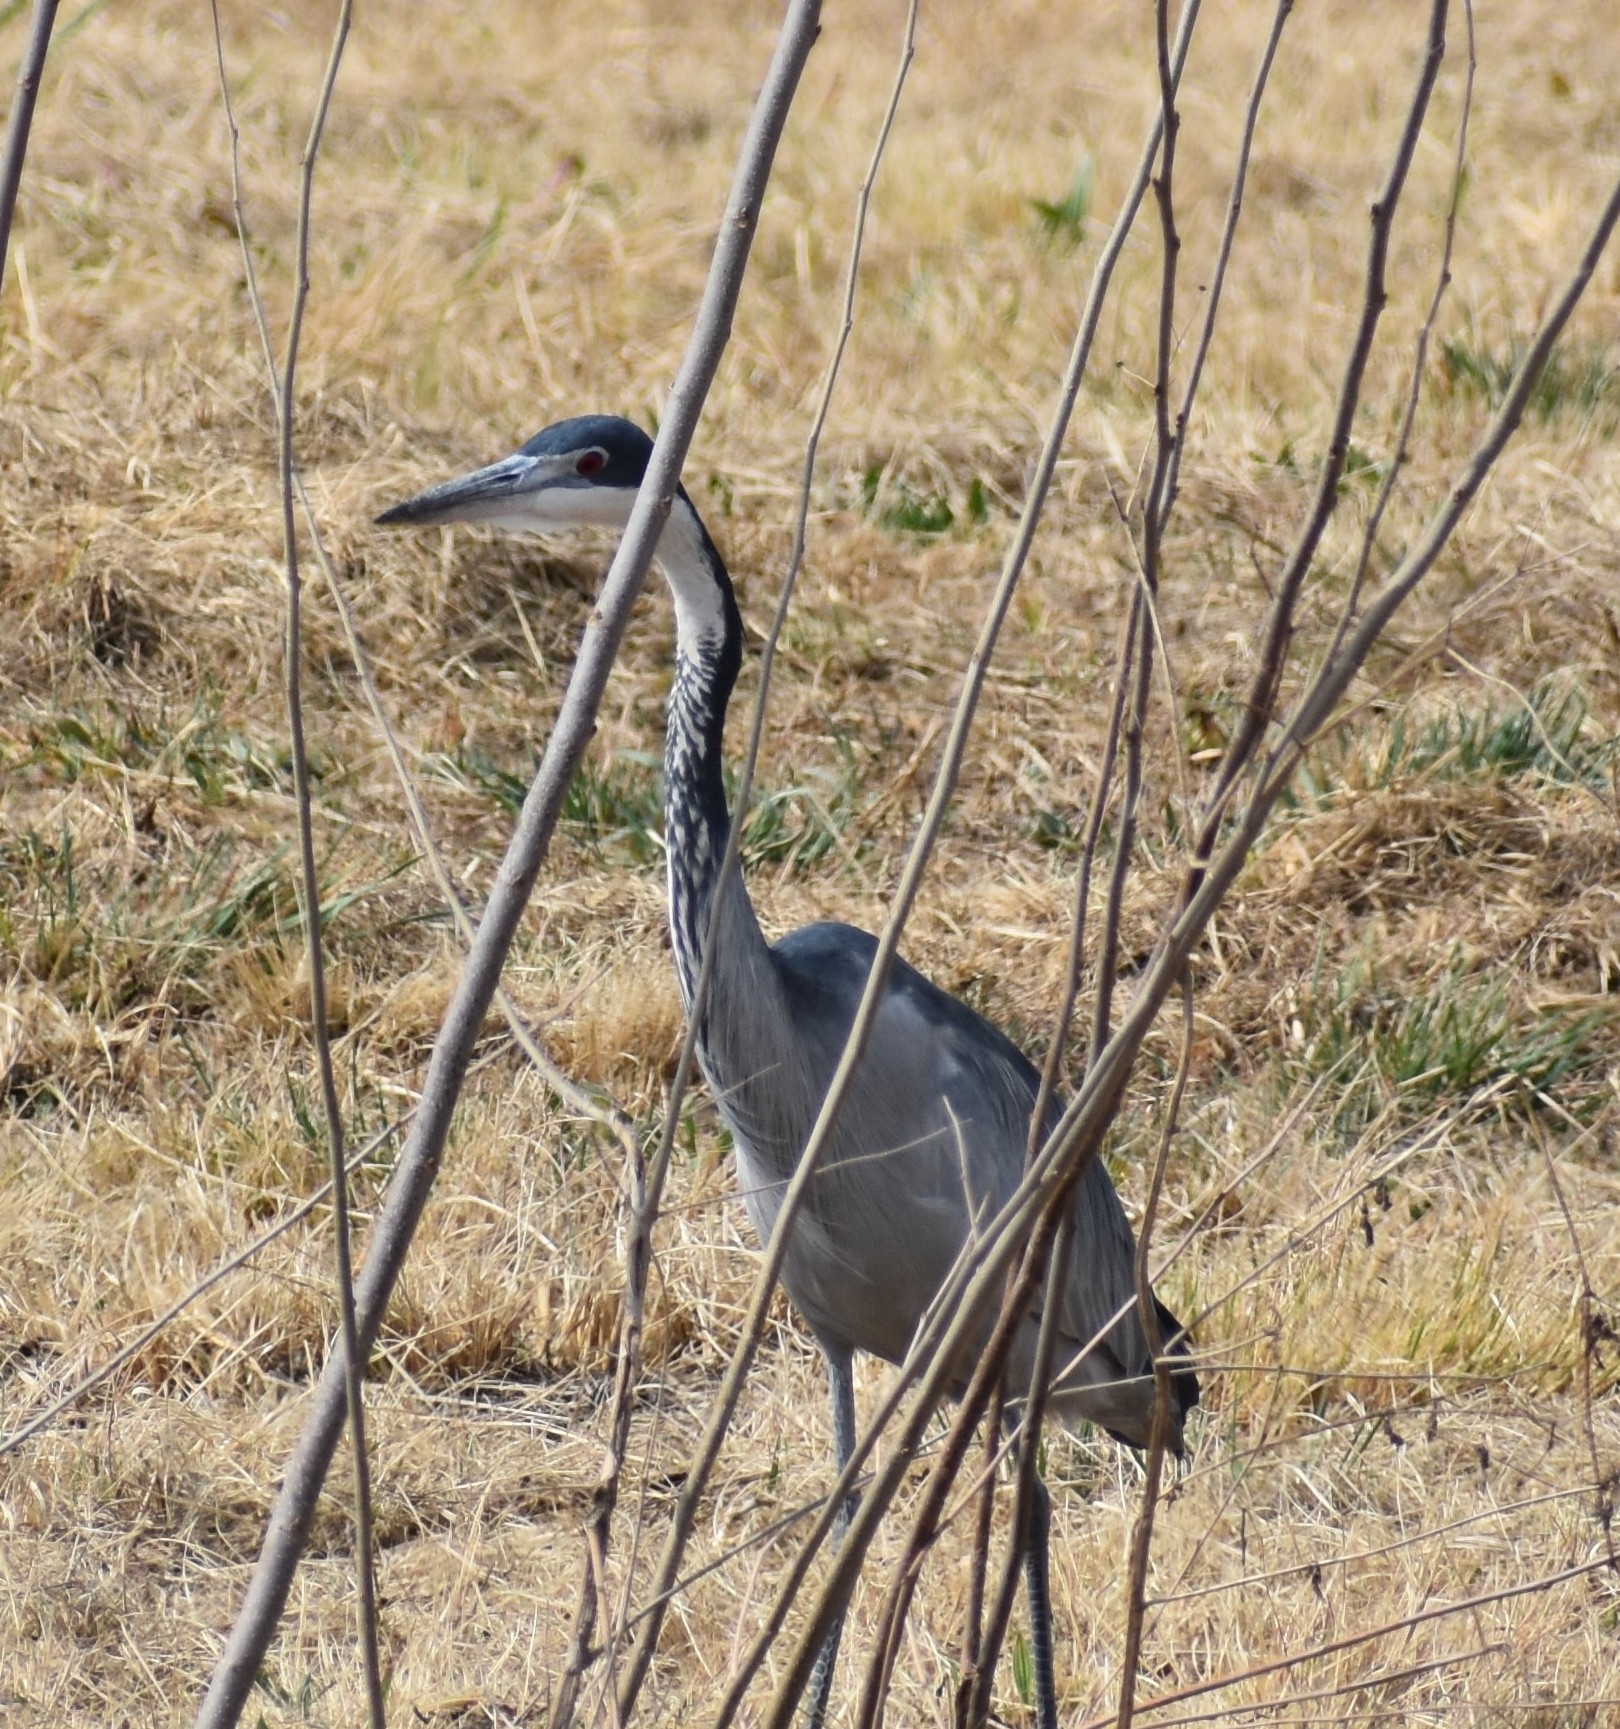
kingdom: Animalia
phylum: Chordata
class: Aves
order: Pelecaniformes
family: Ardeidae
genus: Ardea
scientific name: Ardea melanocephala
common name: Black-headed heron
